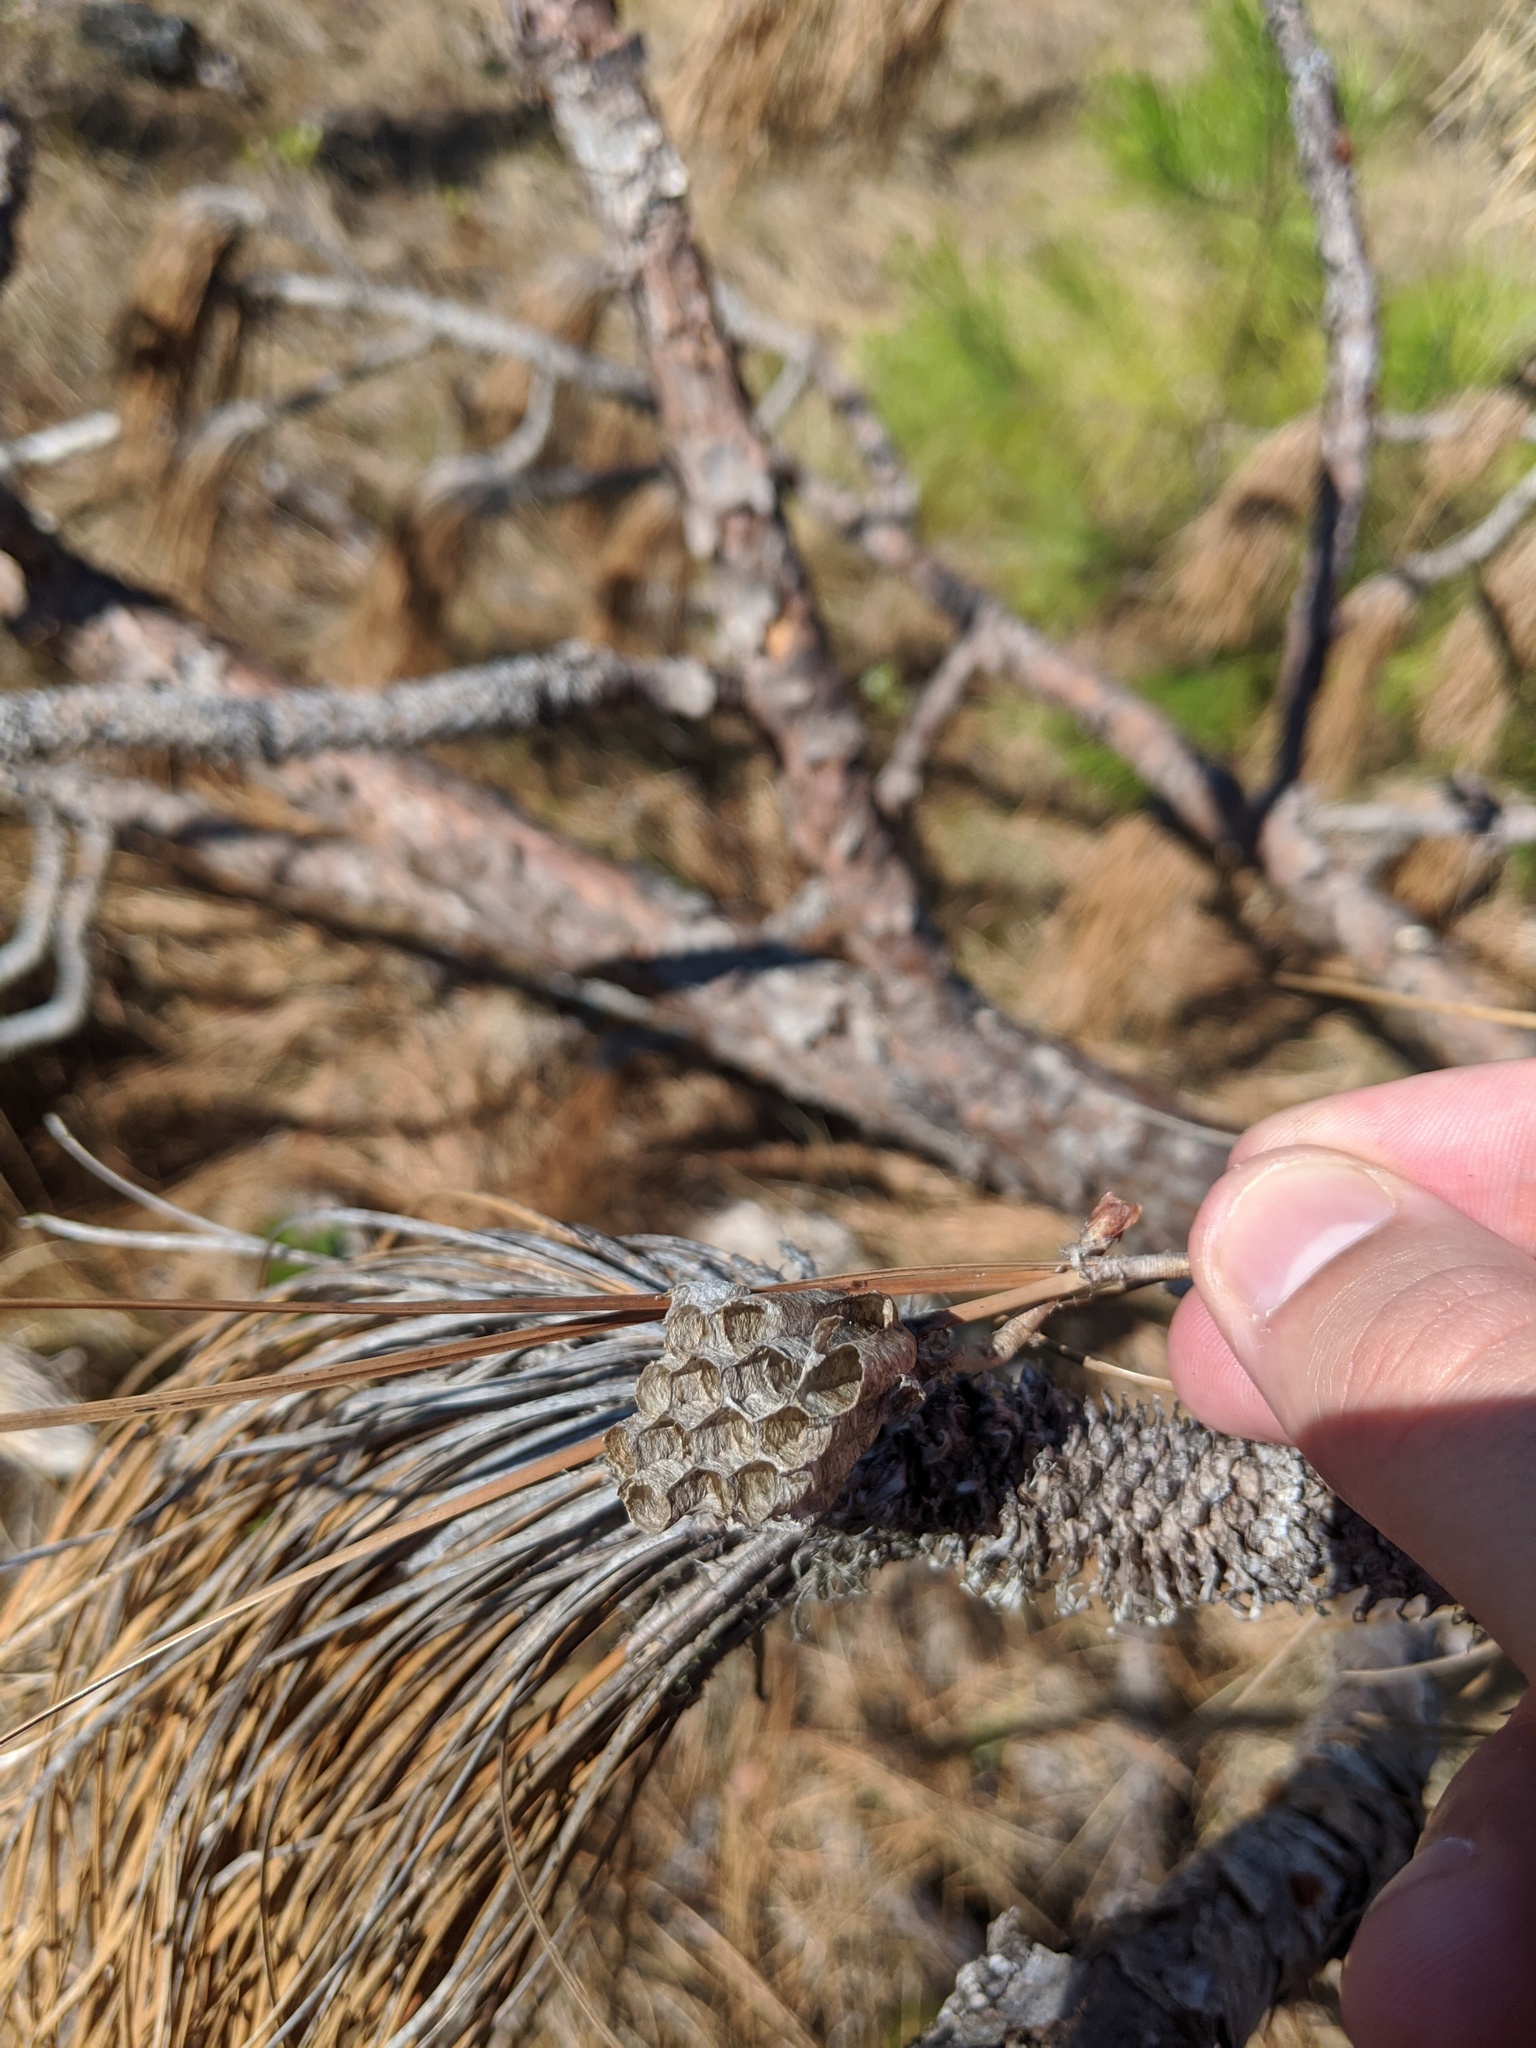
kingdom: Animalia
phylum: Arthropoda
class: Insecta
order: Hymenoptera
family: Eumenidae
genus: Polistes
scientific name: Polistes
